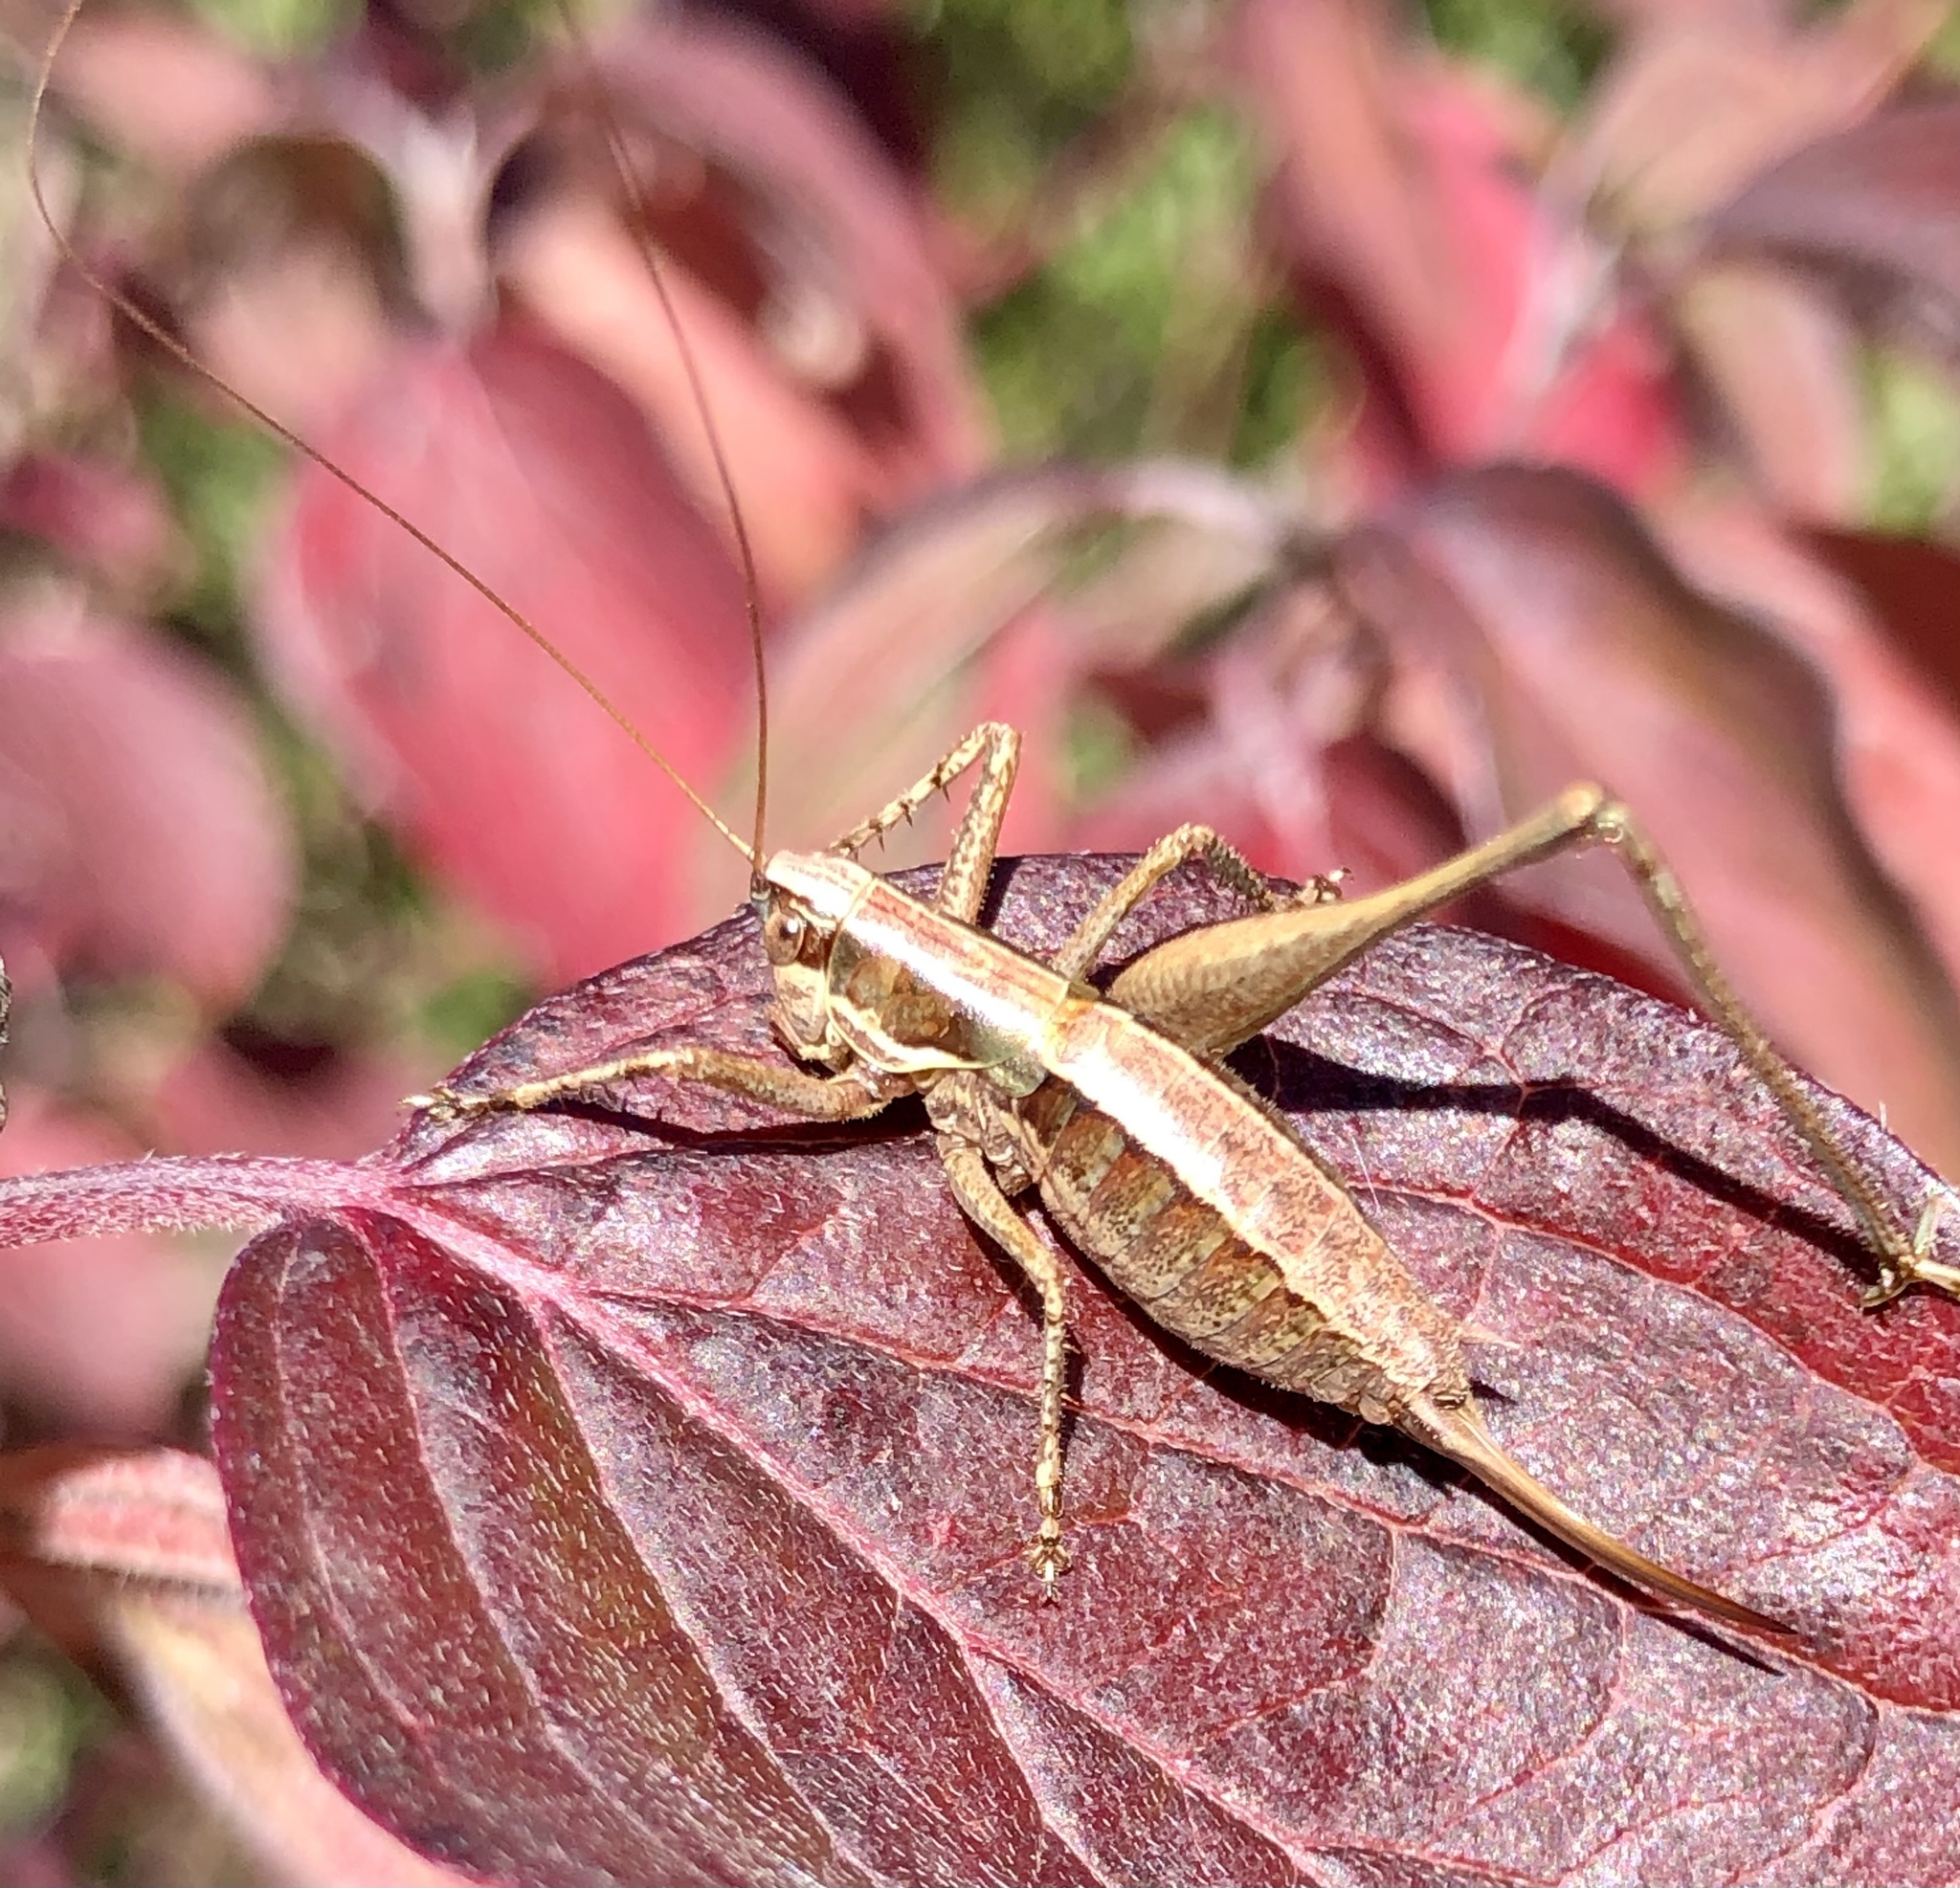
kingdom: Animalia
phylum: Arthropoda
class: Insecta
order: Orthoptera
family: Tettigoniidae
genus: Yersinella
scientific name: Yersinella raymondii
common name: Raymond's bush-cricket
